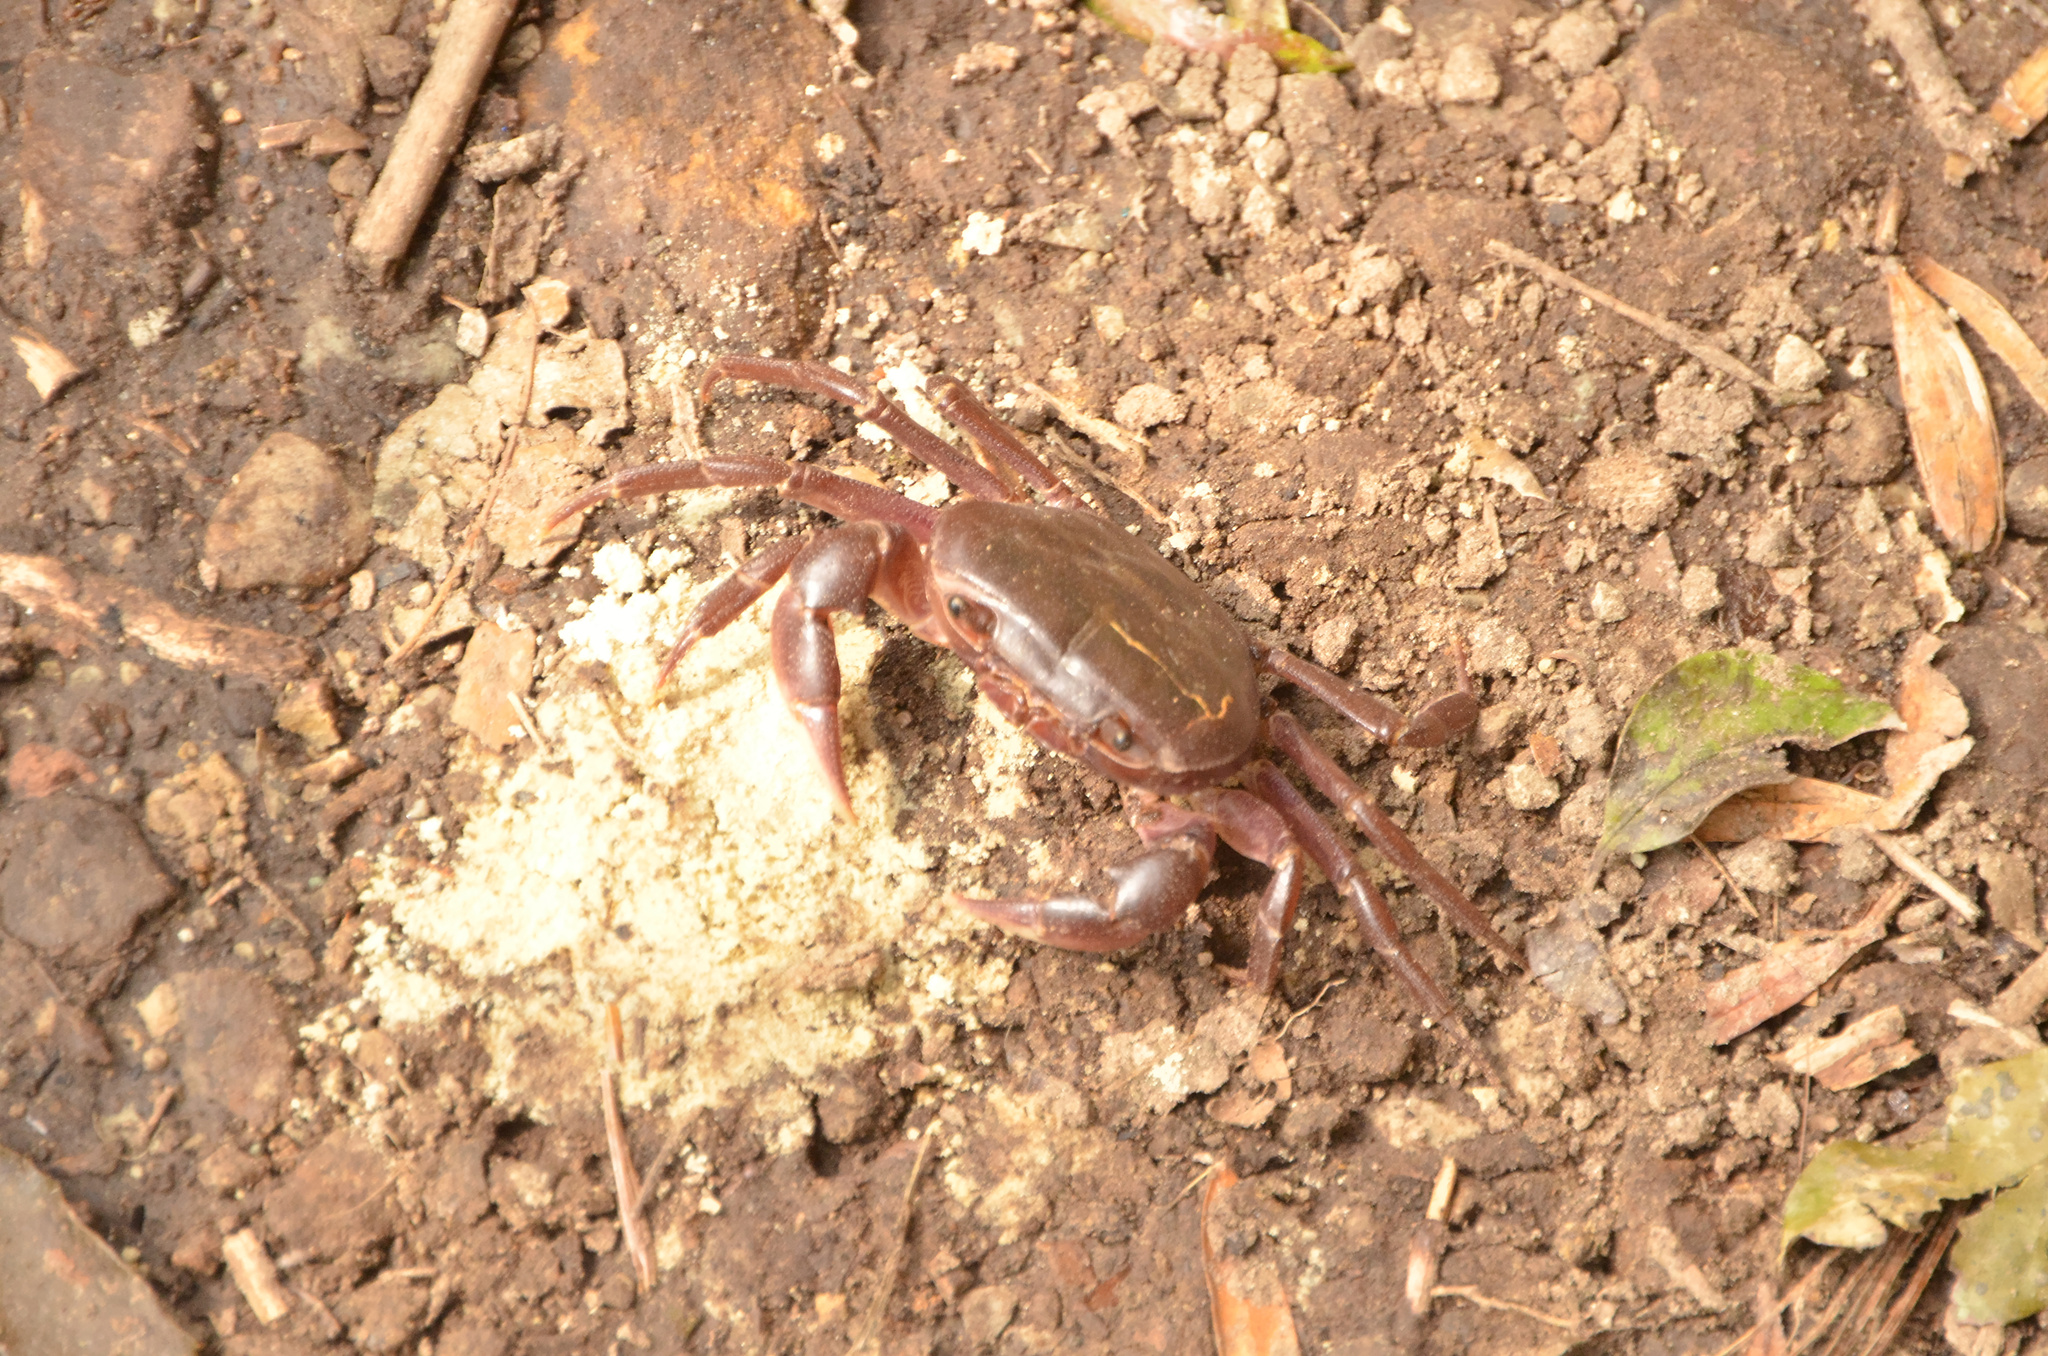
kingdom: Animalia
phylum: Arthropoda
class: Malacostraca
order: Decapoda
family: Potamonautidae
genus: Potamonautes
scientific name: Potamonautes sidneyi
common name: Natal river crab
